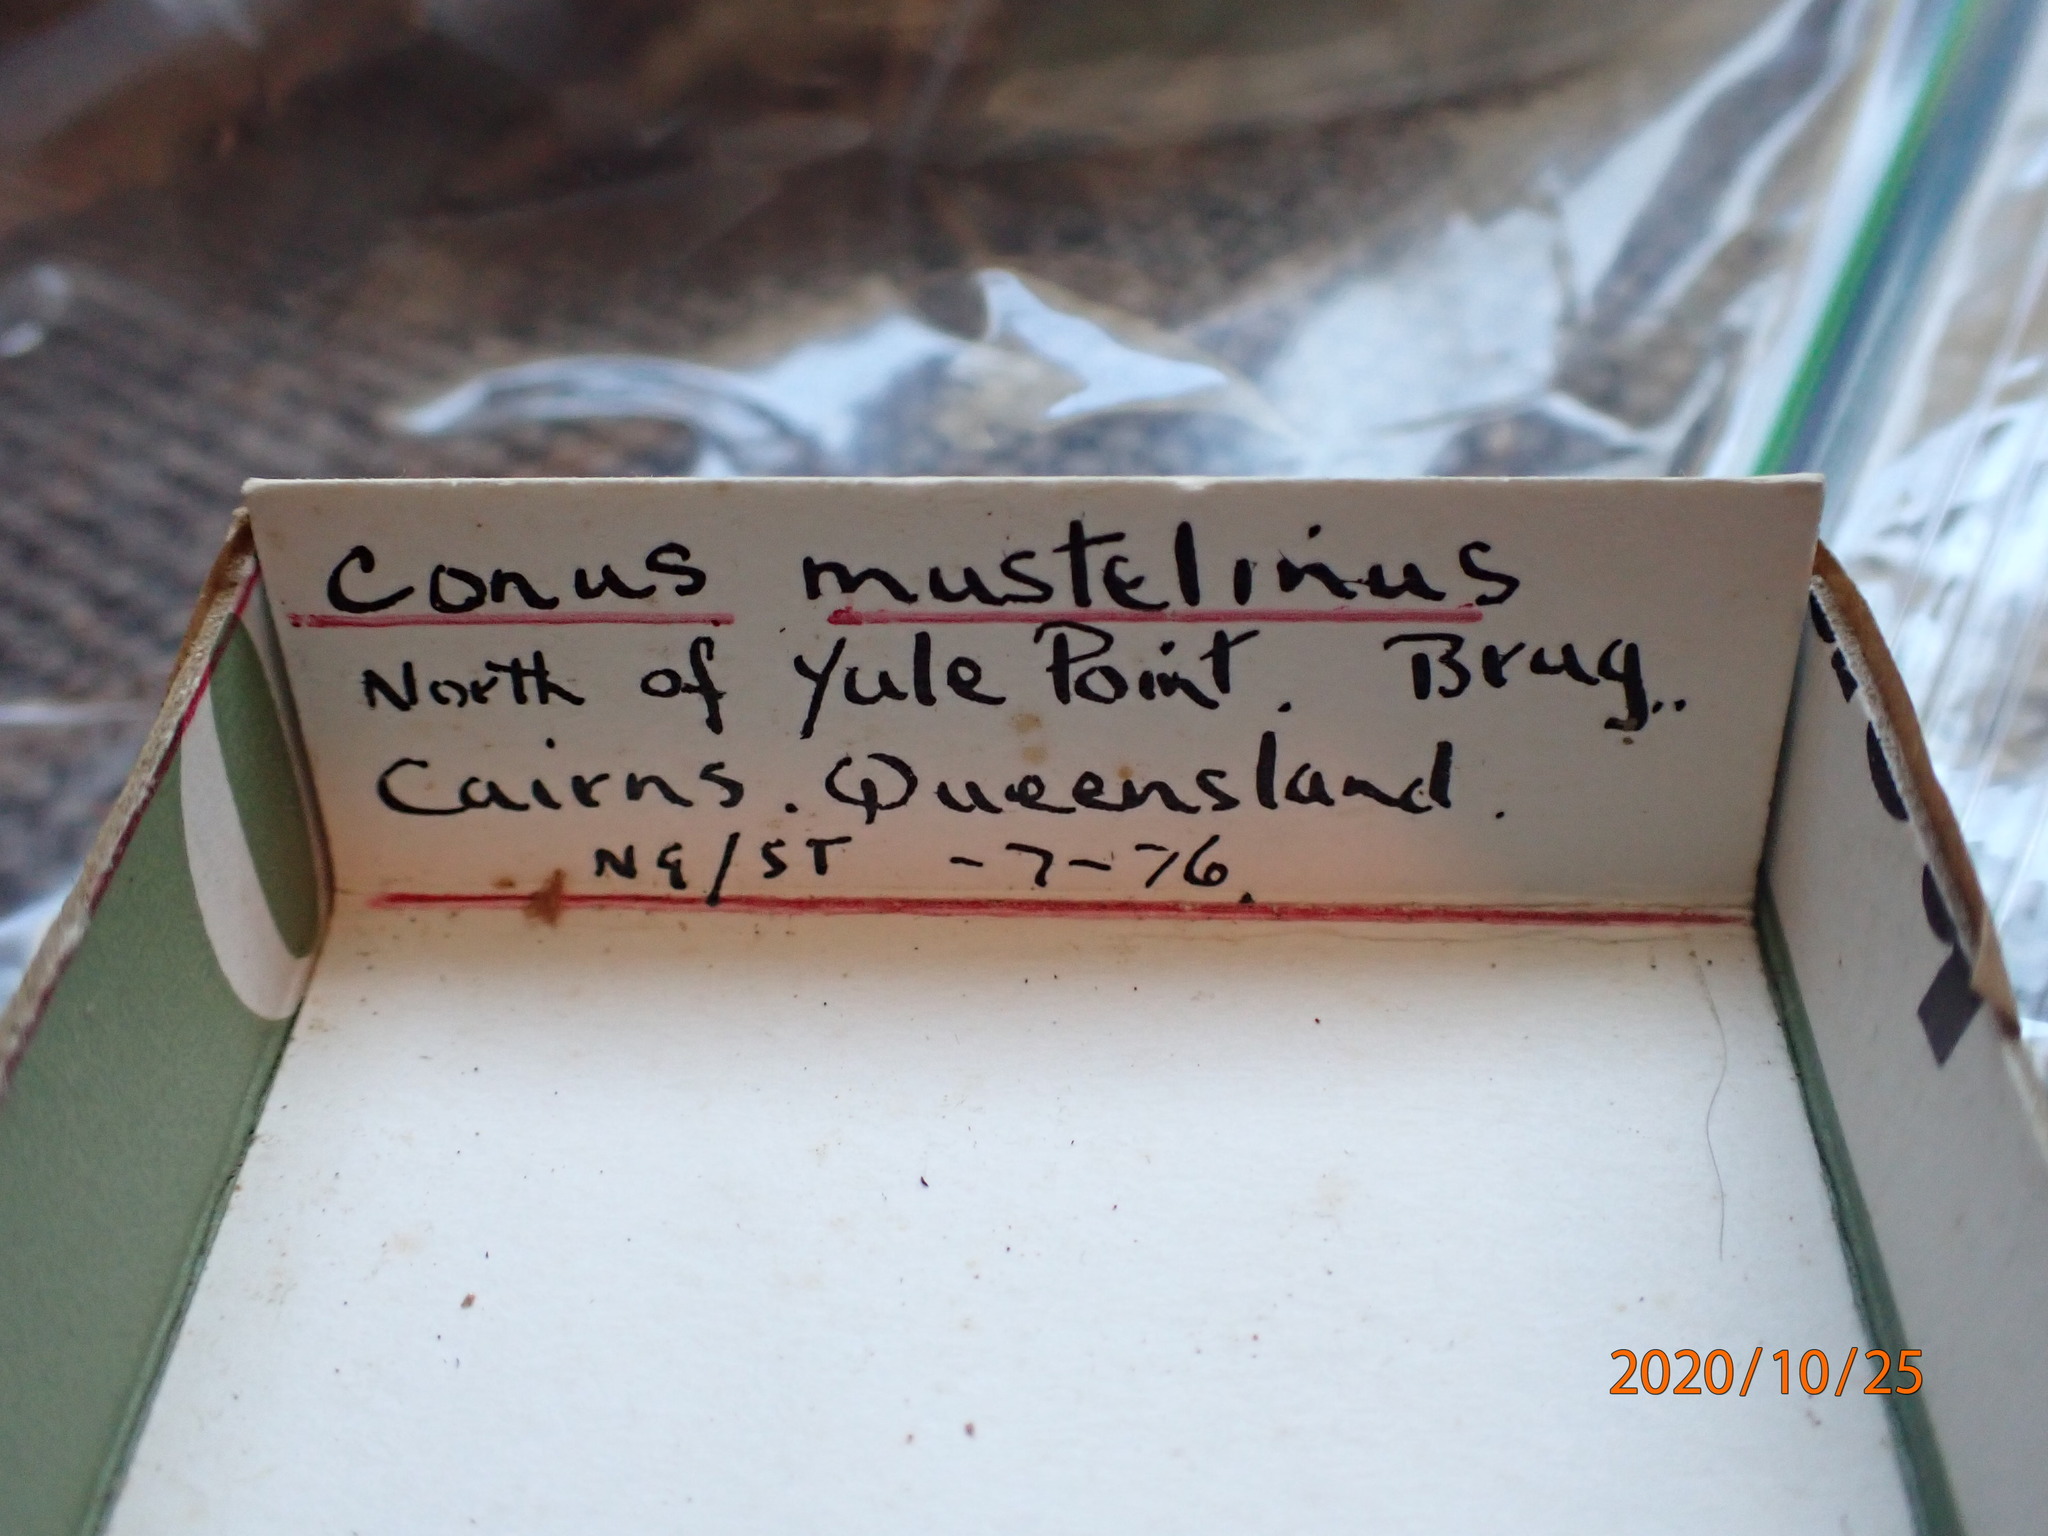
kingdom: Animalia
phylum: Mollusca
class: Gastropoda
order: Neogastropoda
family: Conidae
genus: Conus
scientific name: Conus mustelinus
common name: Weasel cone
